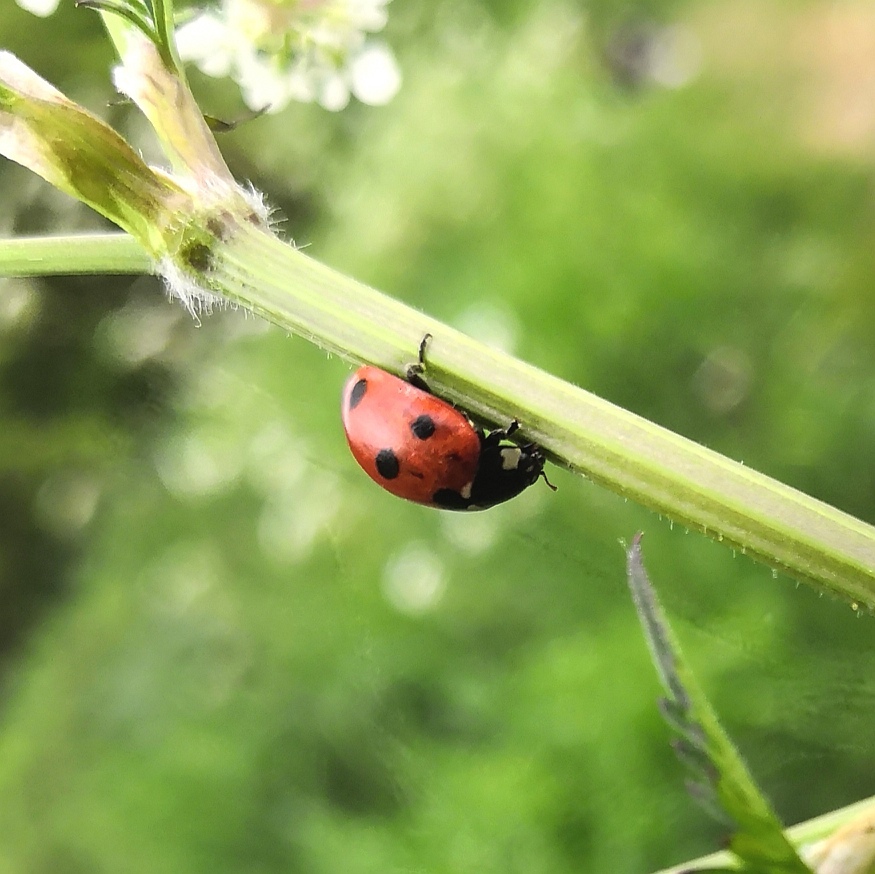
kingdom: Animalia
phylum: Arthropoda
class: Insecta
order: Coleoptera
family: Coccinellidae
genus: Coccinella
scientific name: Coccinella septempunctata
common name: Sevenspotted lady beetle
